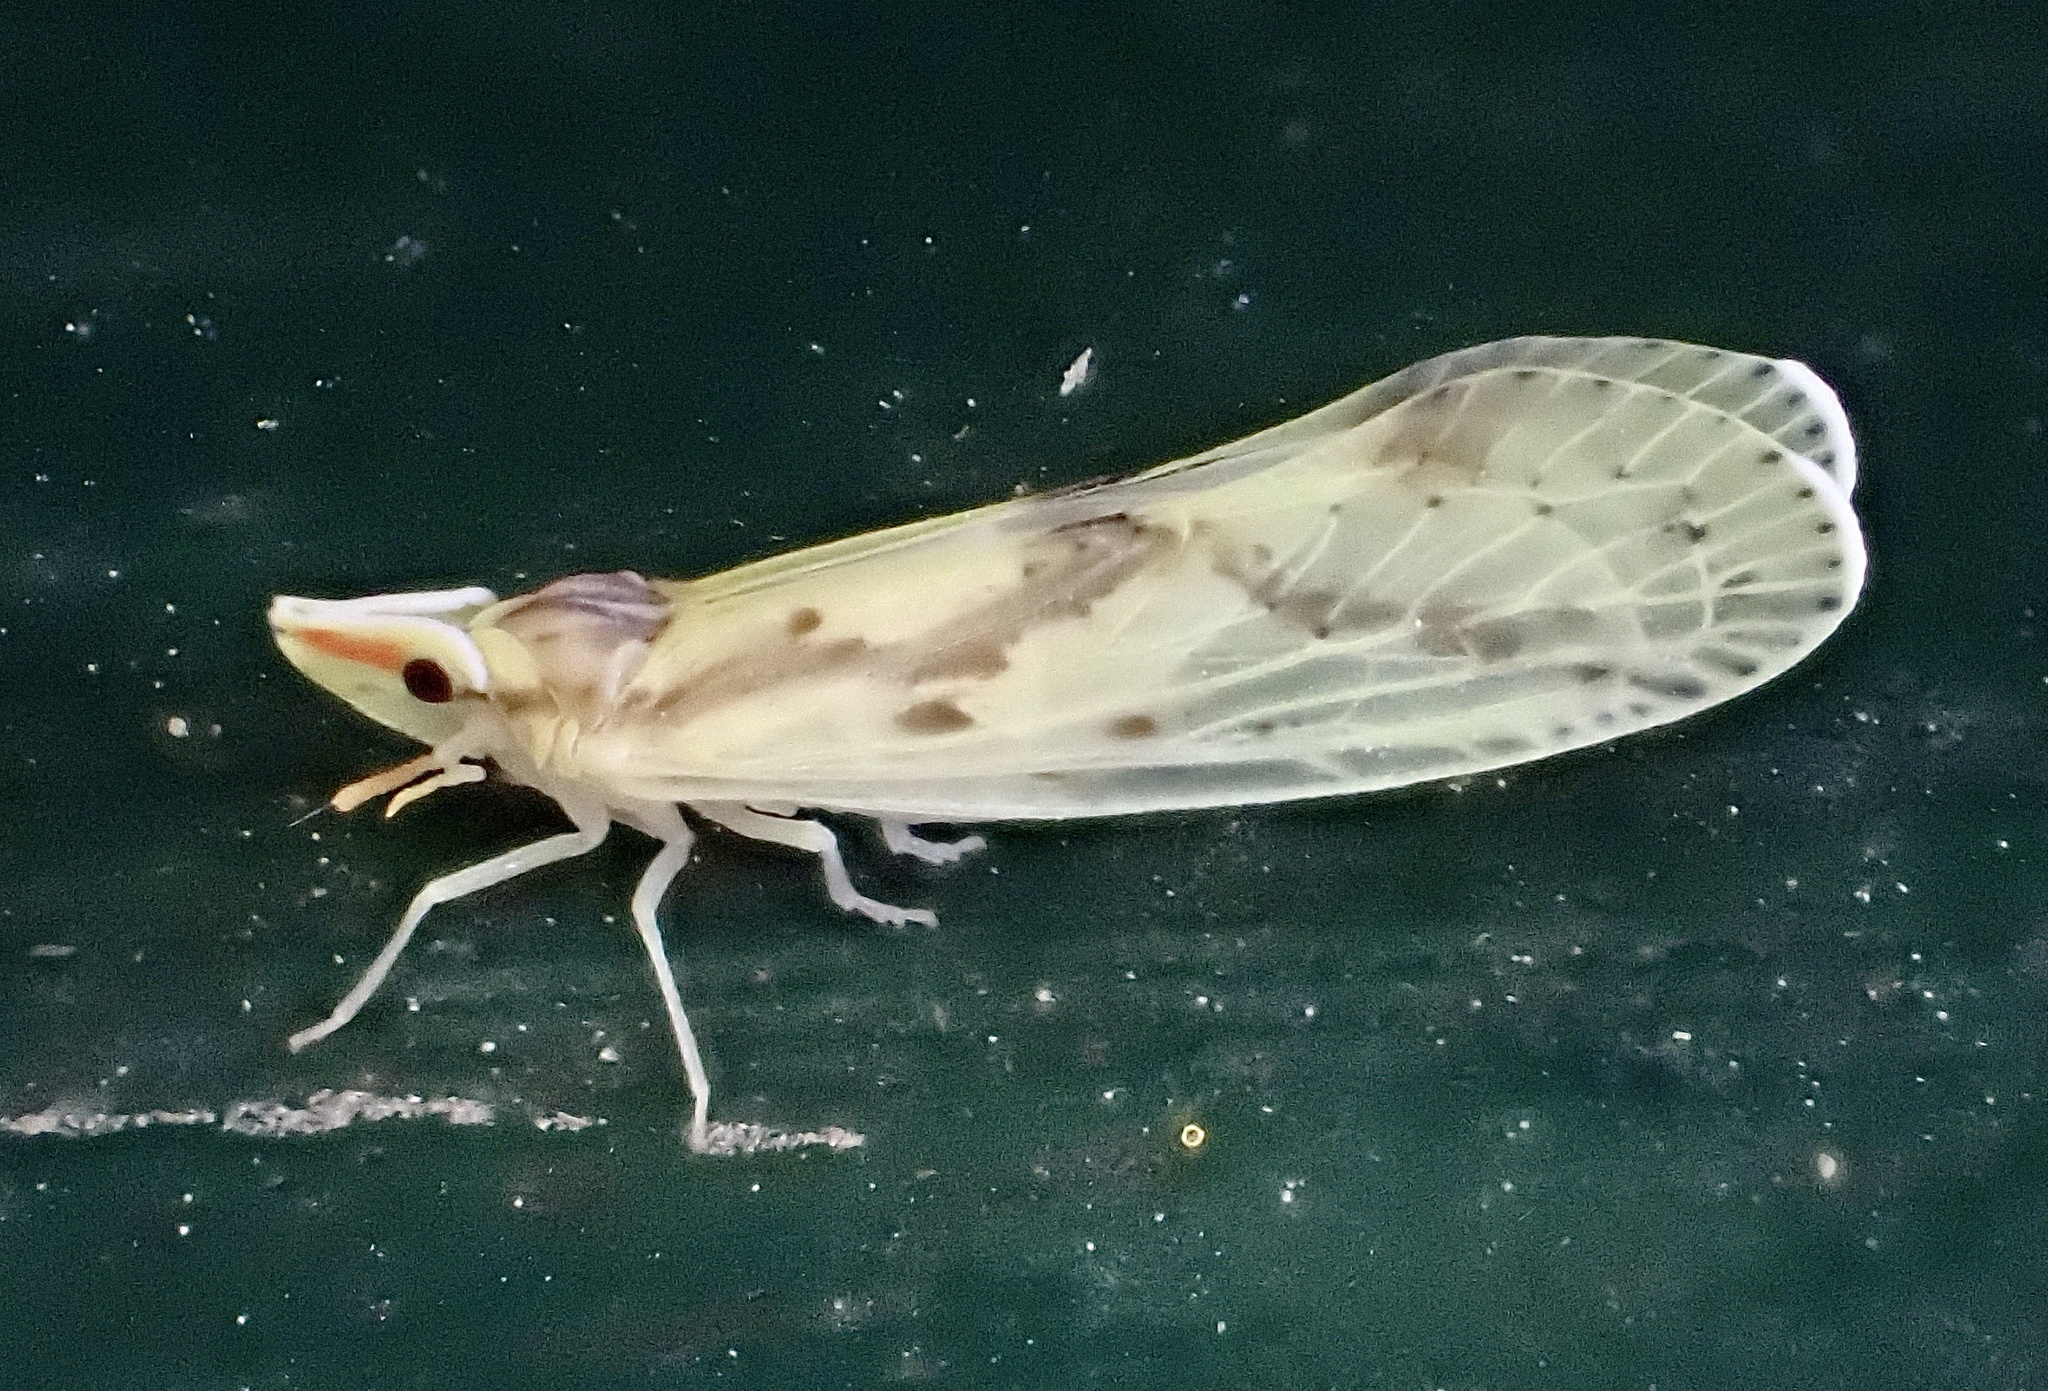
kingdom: Animalia
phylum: Arthropoda
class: Insecta
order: Hemiptera
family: Derbidae
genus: Otiocerus
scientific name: Otiocerus wolfii
